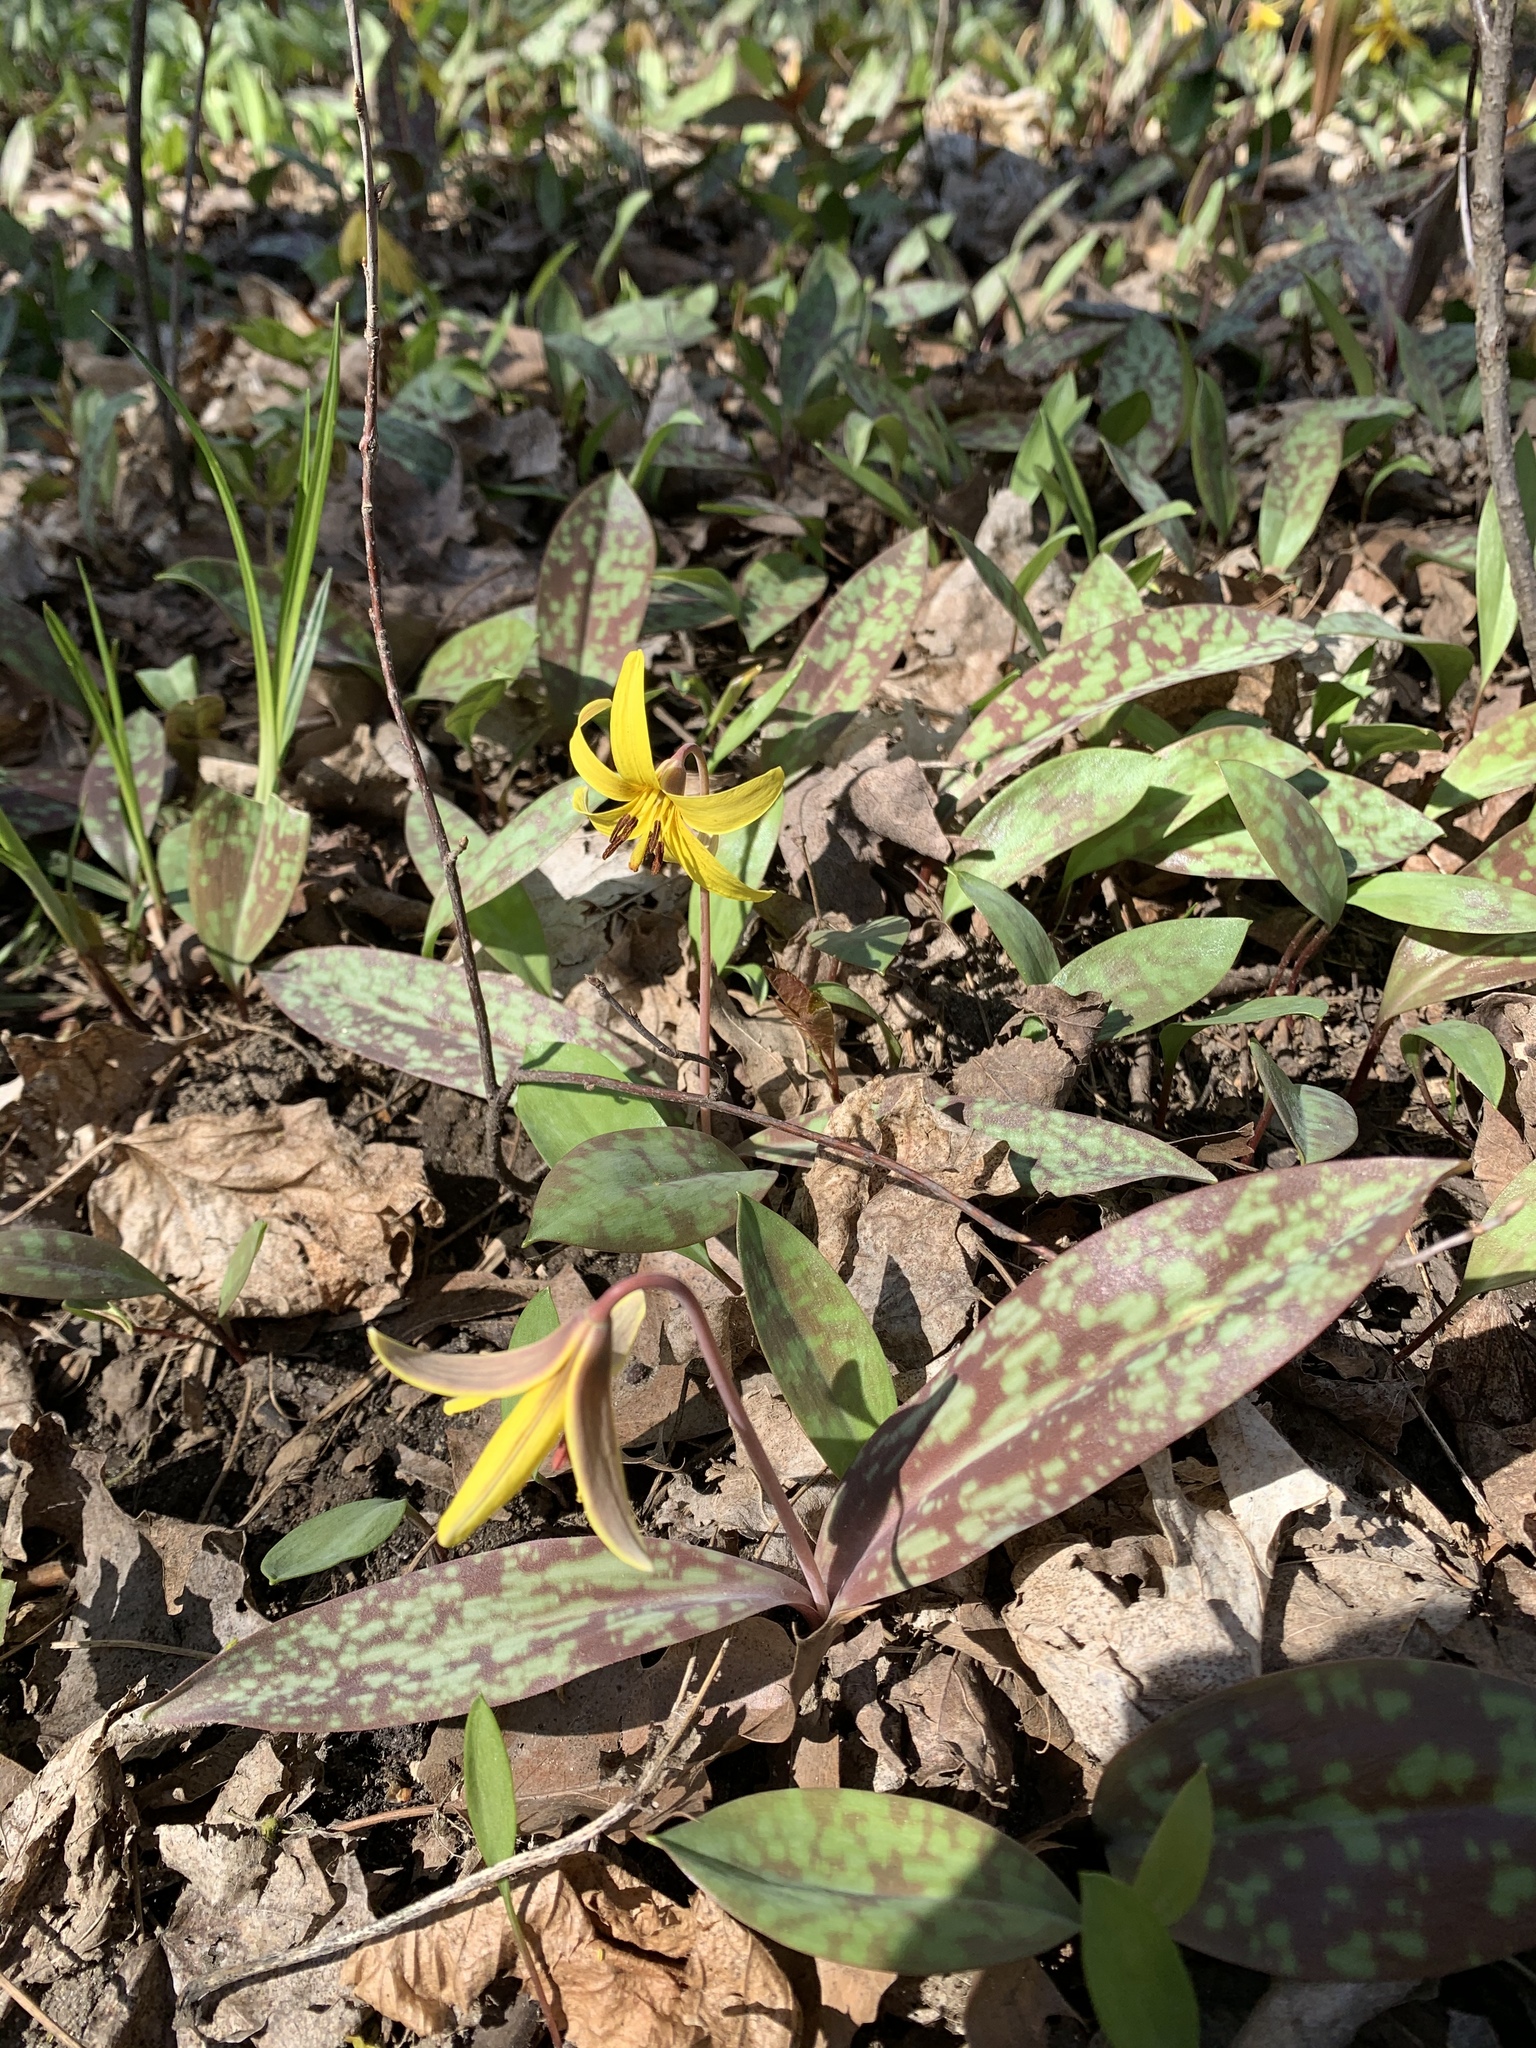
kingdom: Plantae
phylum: Tracheophyta
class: Liliopsida
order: Liliales
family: Liliaceae
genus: Erythronium
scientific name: Erythronium americanum
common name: Yellow adder's-tongue
